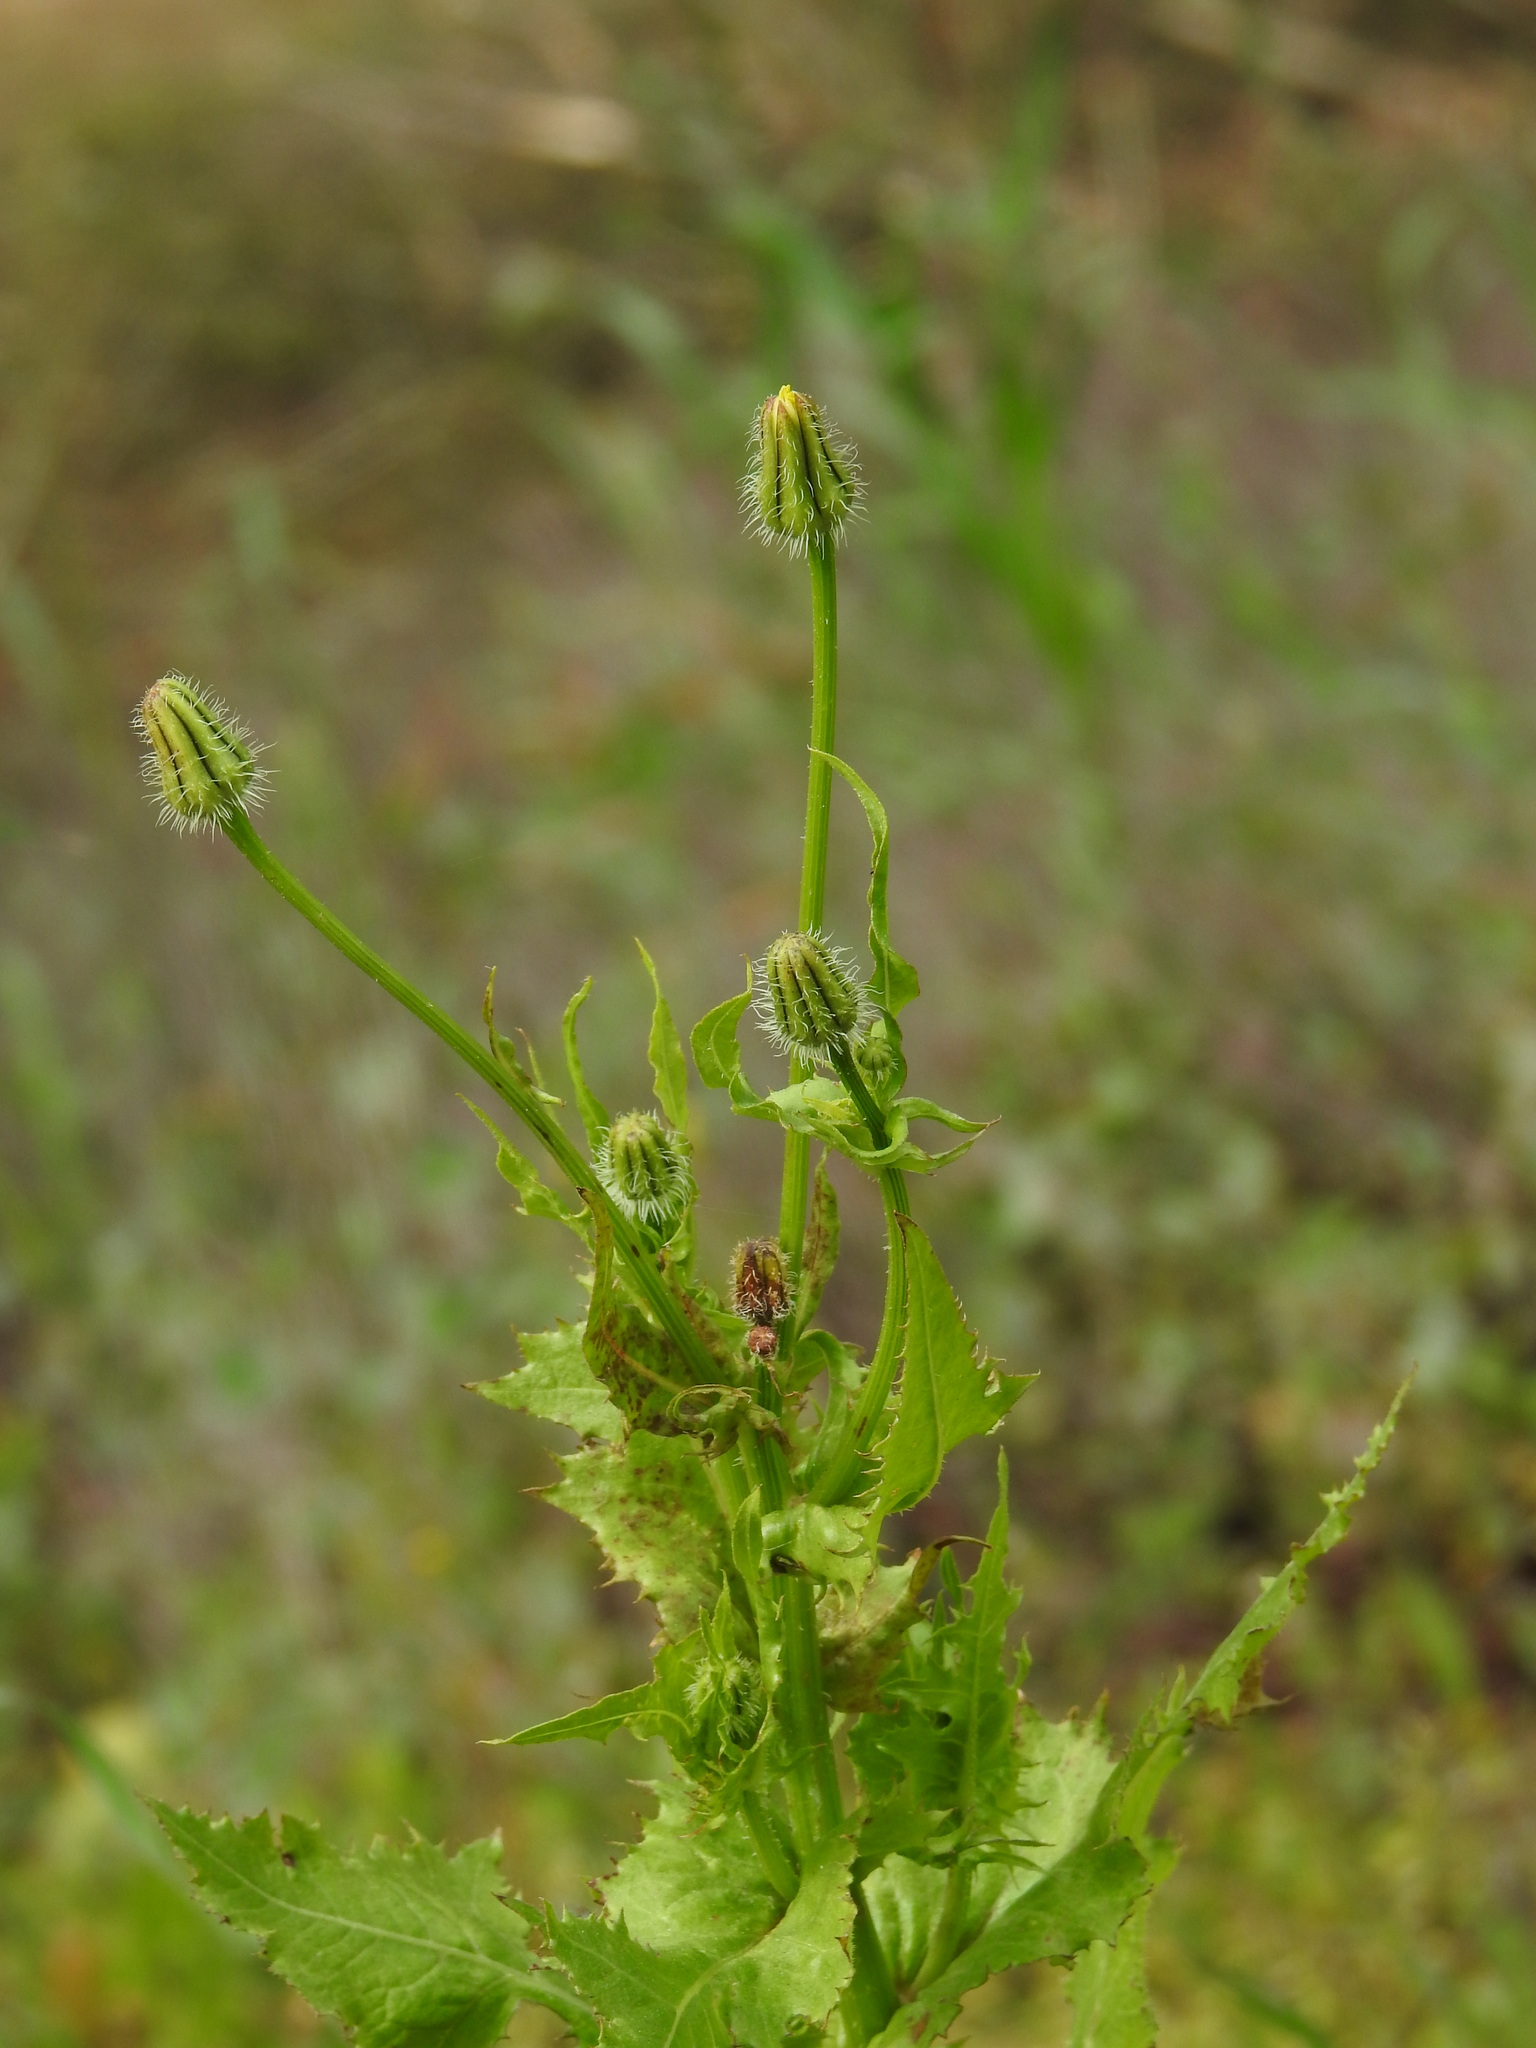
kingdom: Plantae
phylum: Tracheophyta
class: Magnoliopsida
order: Asterales
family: Asteraceae
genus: Urospermum
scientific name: Urospermum picroides
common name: False hawkbit
